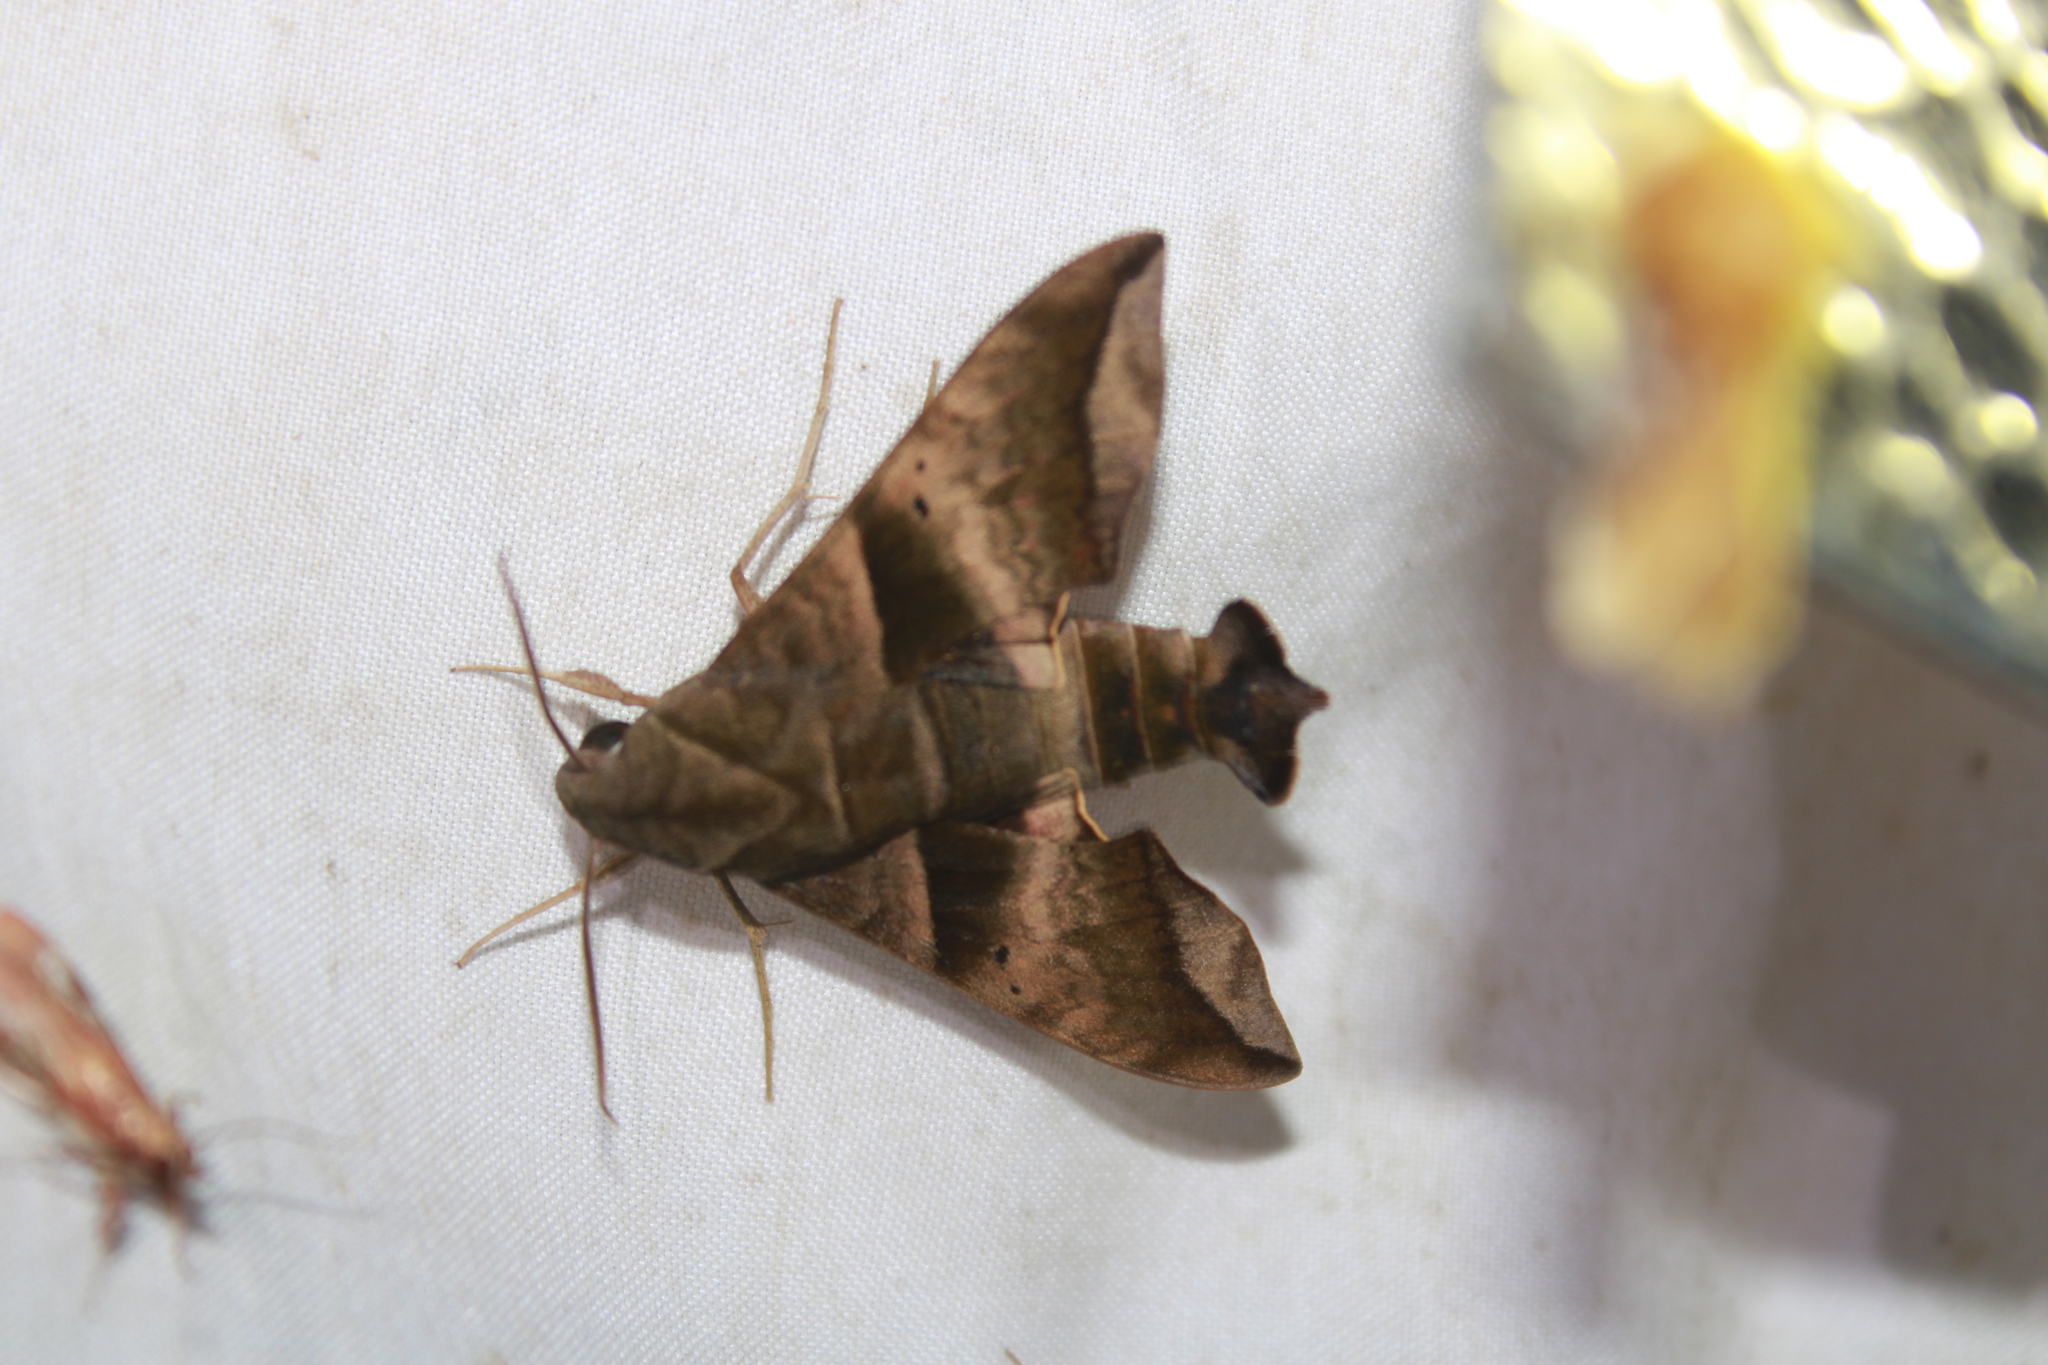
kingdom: Animalia
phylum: Arthropoda
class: Insecta
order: Lepidoptera
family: Sphingidae
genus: Perigonia
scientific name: Perigonia lusca
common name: Half-blind sphinx
